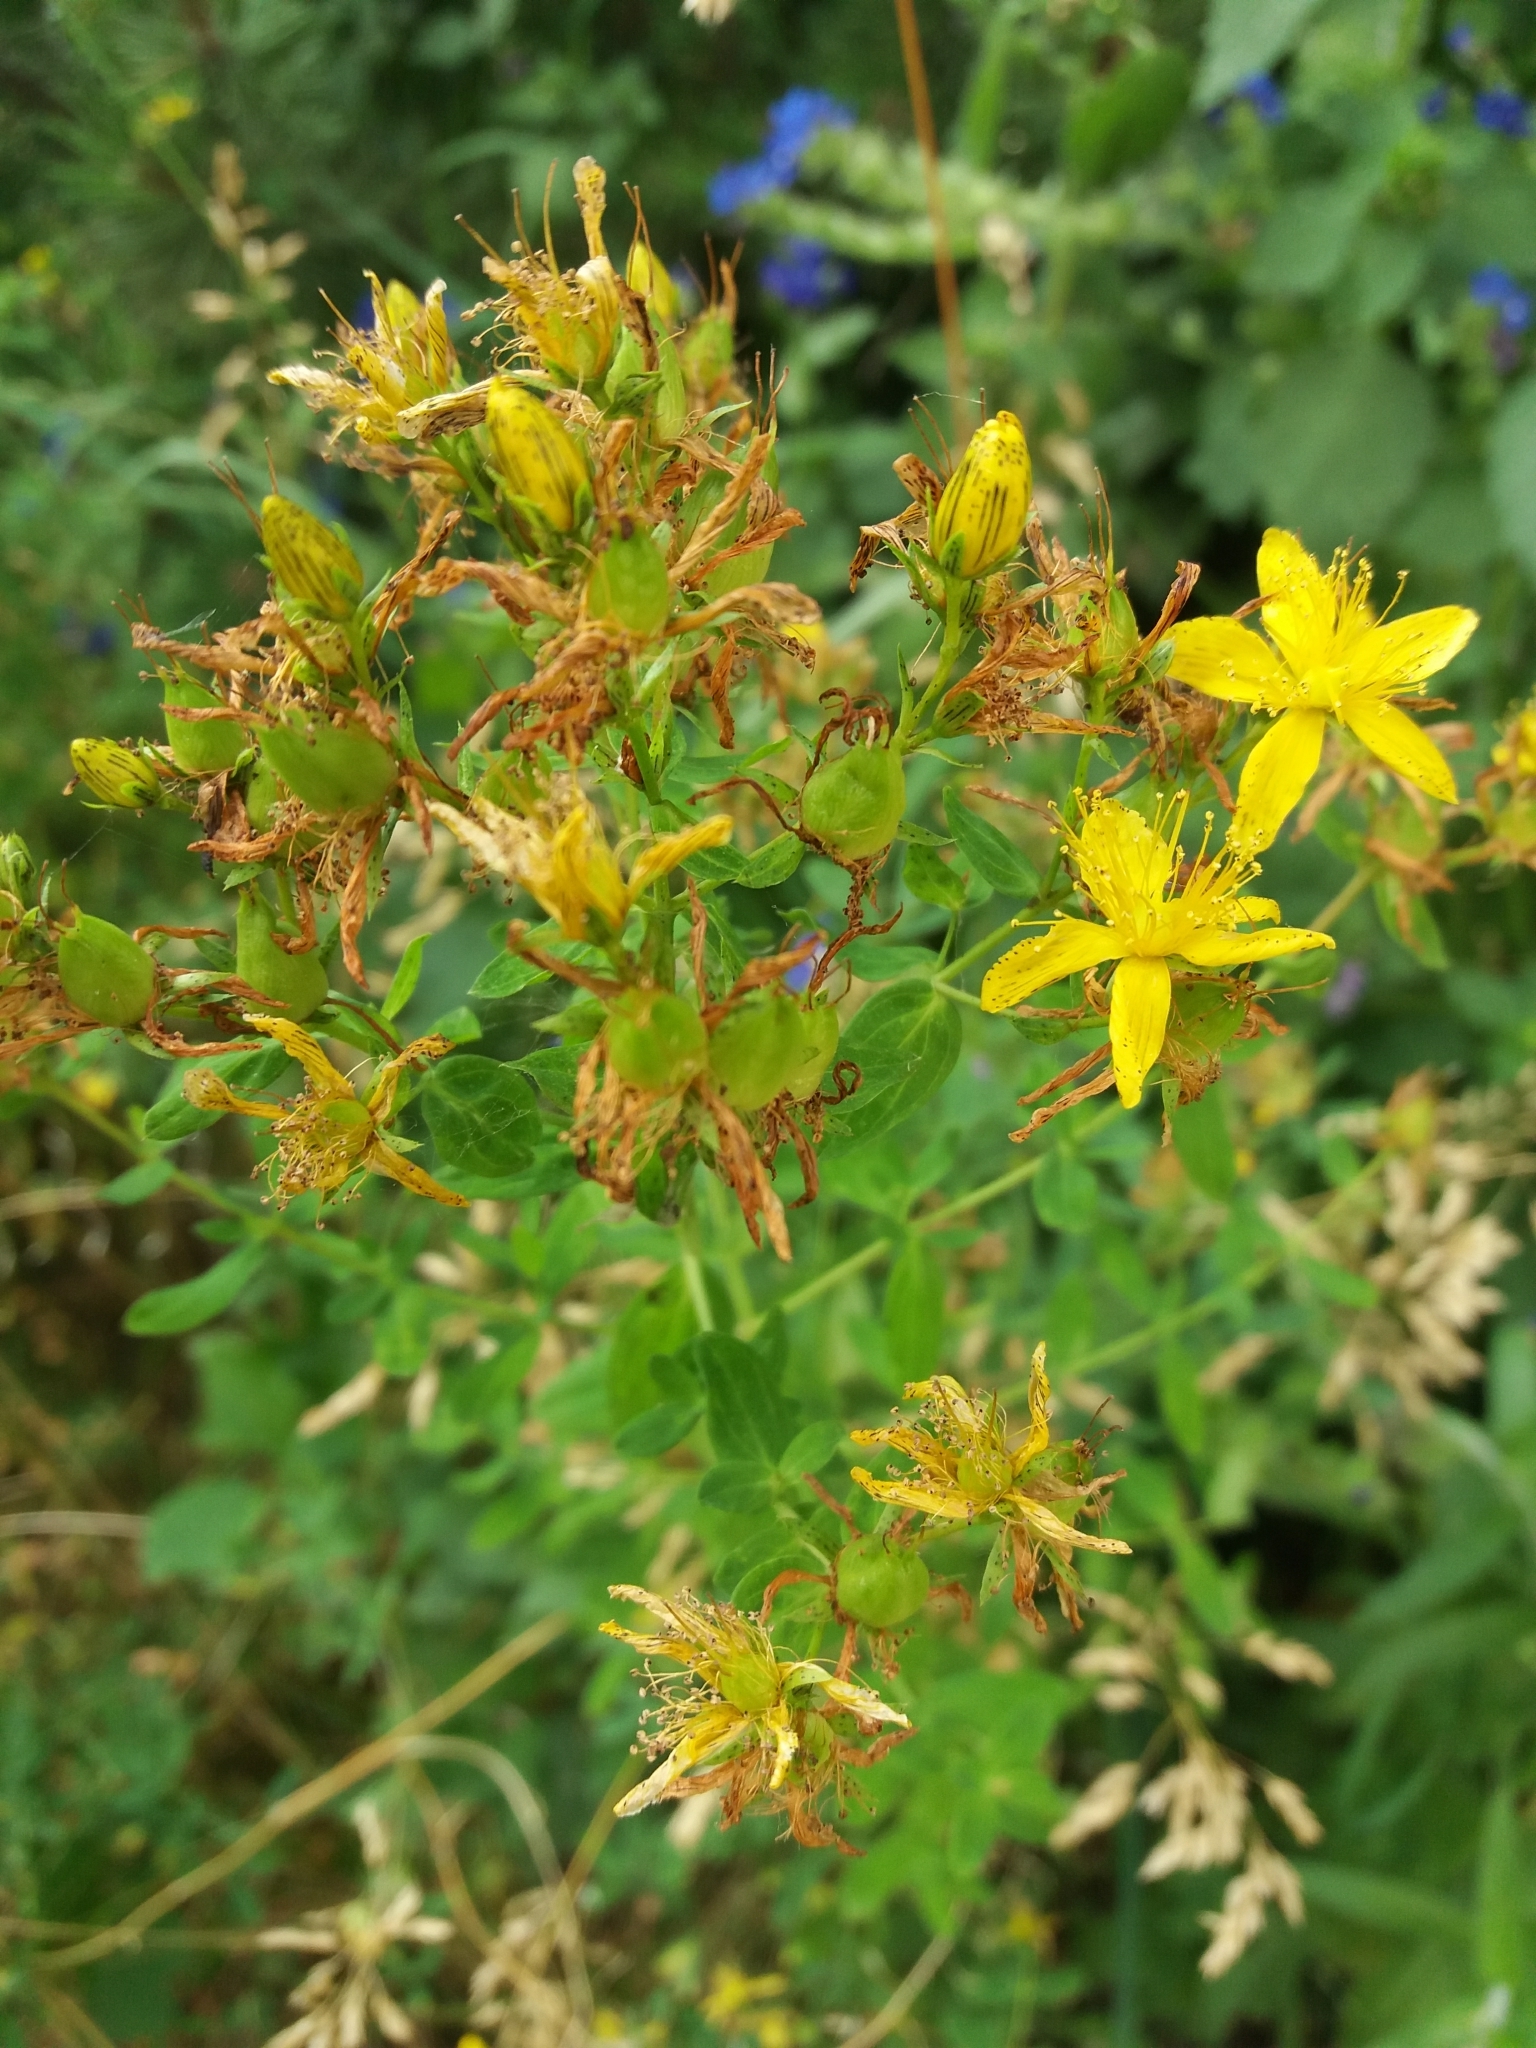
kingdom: Plantae
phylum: Tracheophyta
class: Magnoliopsida
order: Malpighiales
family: Hypericaceae
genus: Hypericum
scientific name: Hypericum perforatum
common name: Common st. johnswort
